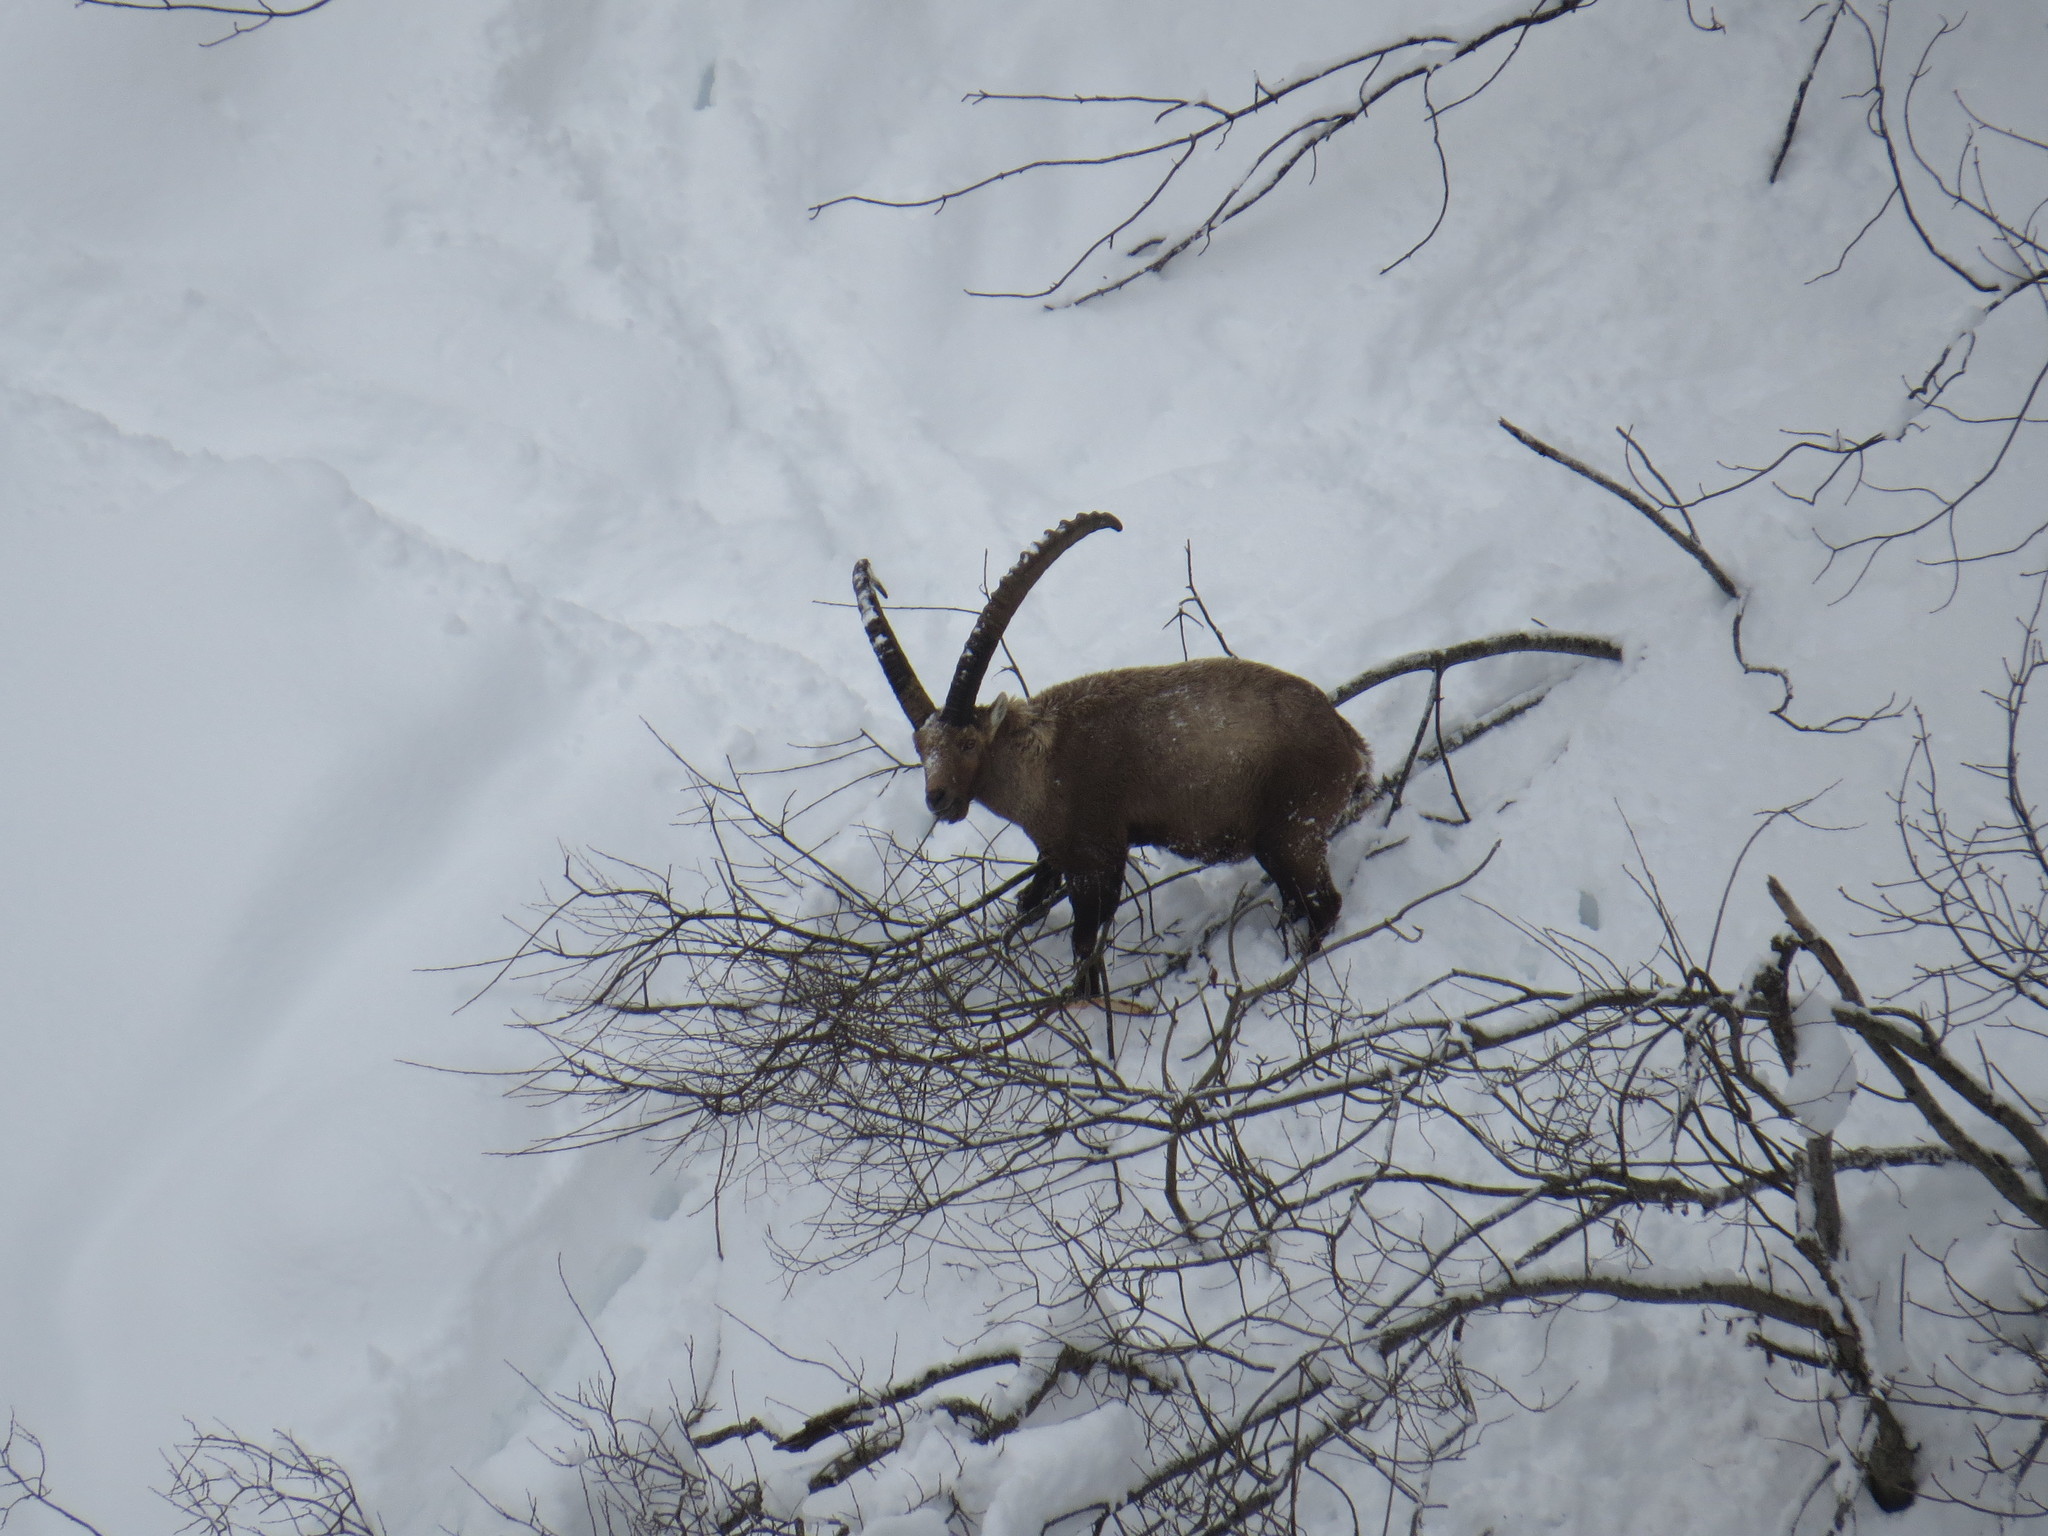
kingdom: Animalia
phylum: Chordata
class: Mammalia
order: Artiodactyla
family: Bovidae
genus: Capra
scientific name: Capra ibex
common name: Alpine ibex
